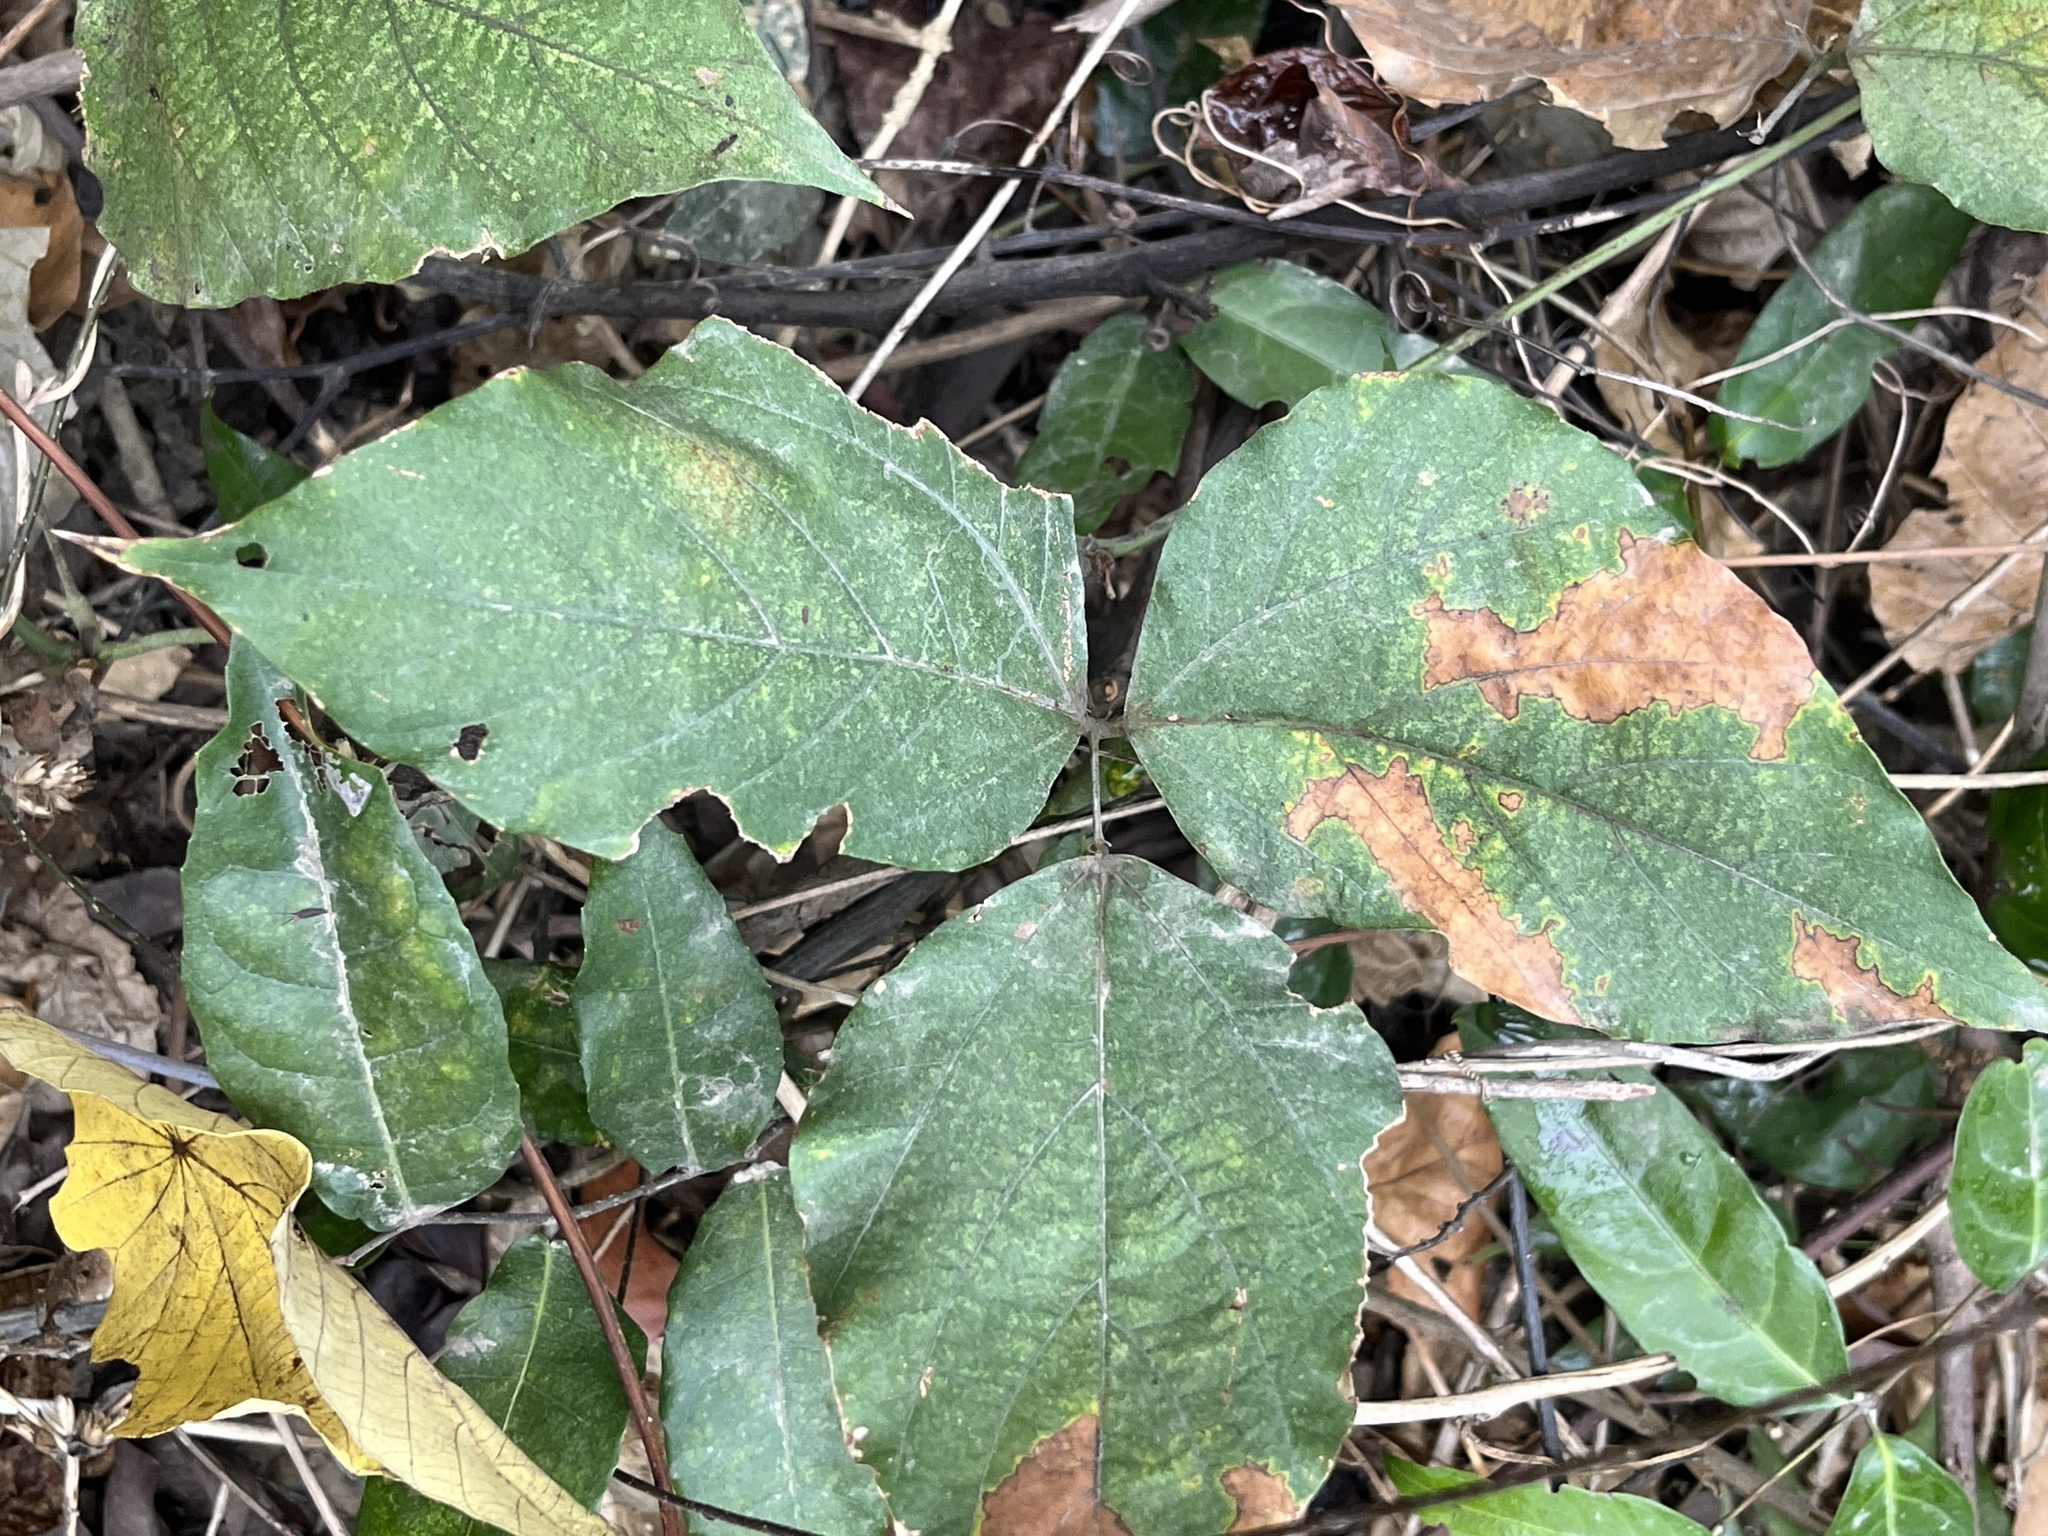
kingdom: Plantae
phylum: Tracheophyta
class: Magnoliopsida
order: Fabales
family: Fabaceae
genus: Pueraria
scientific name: Pueraria montana
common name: Kudzu
